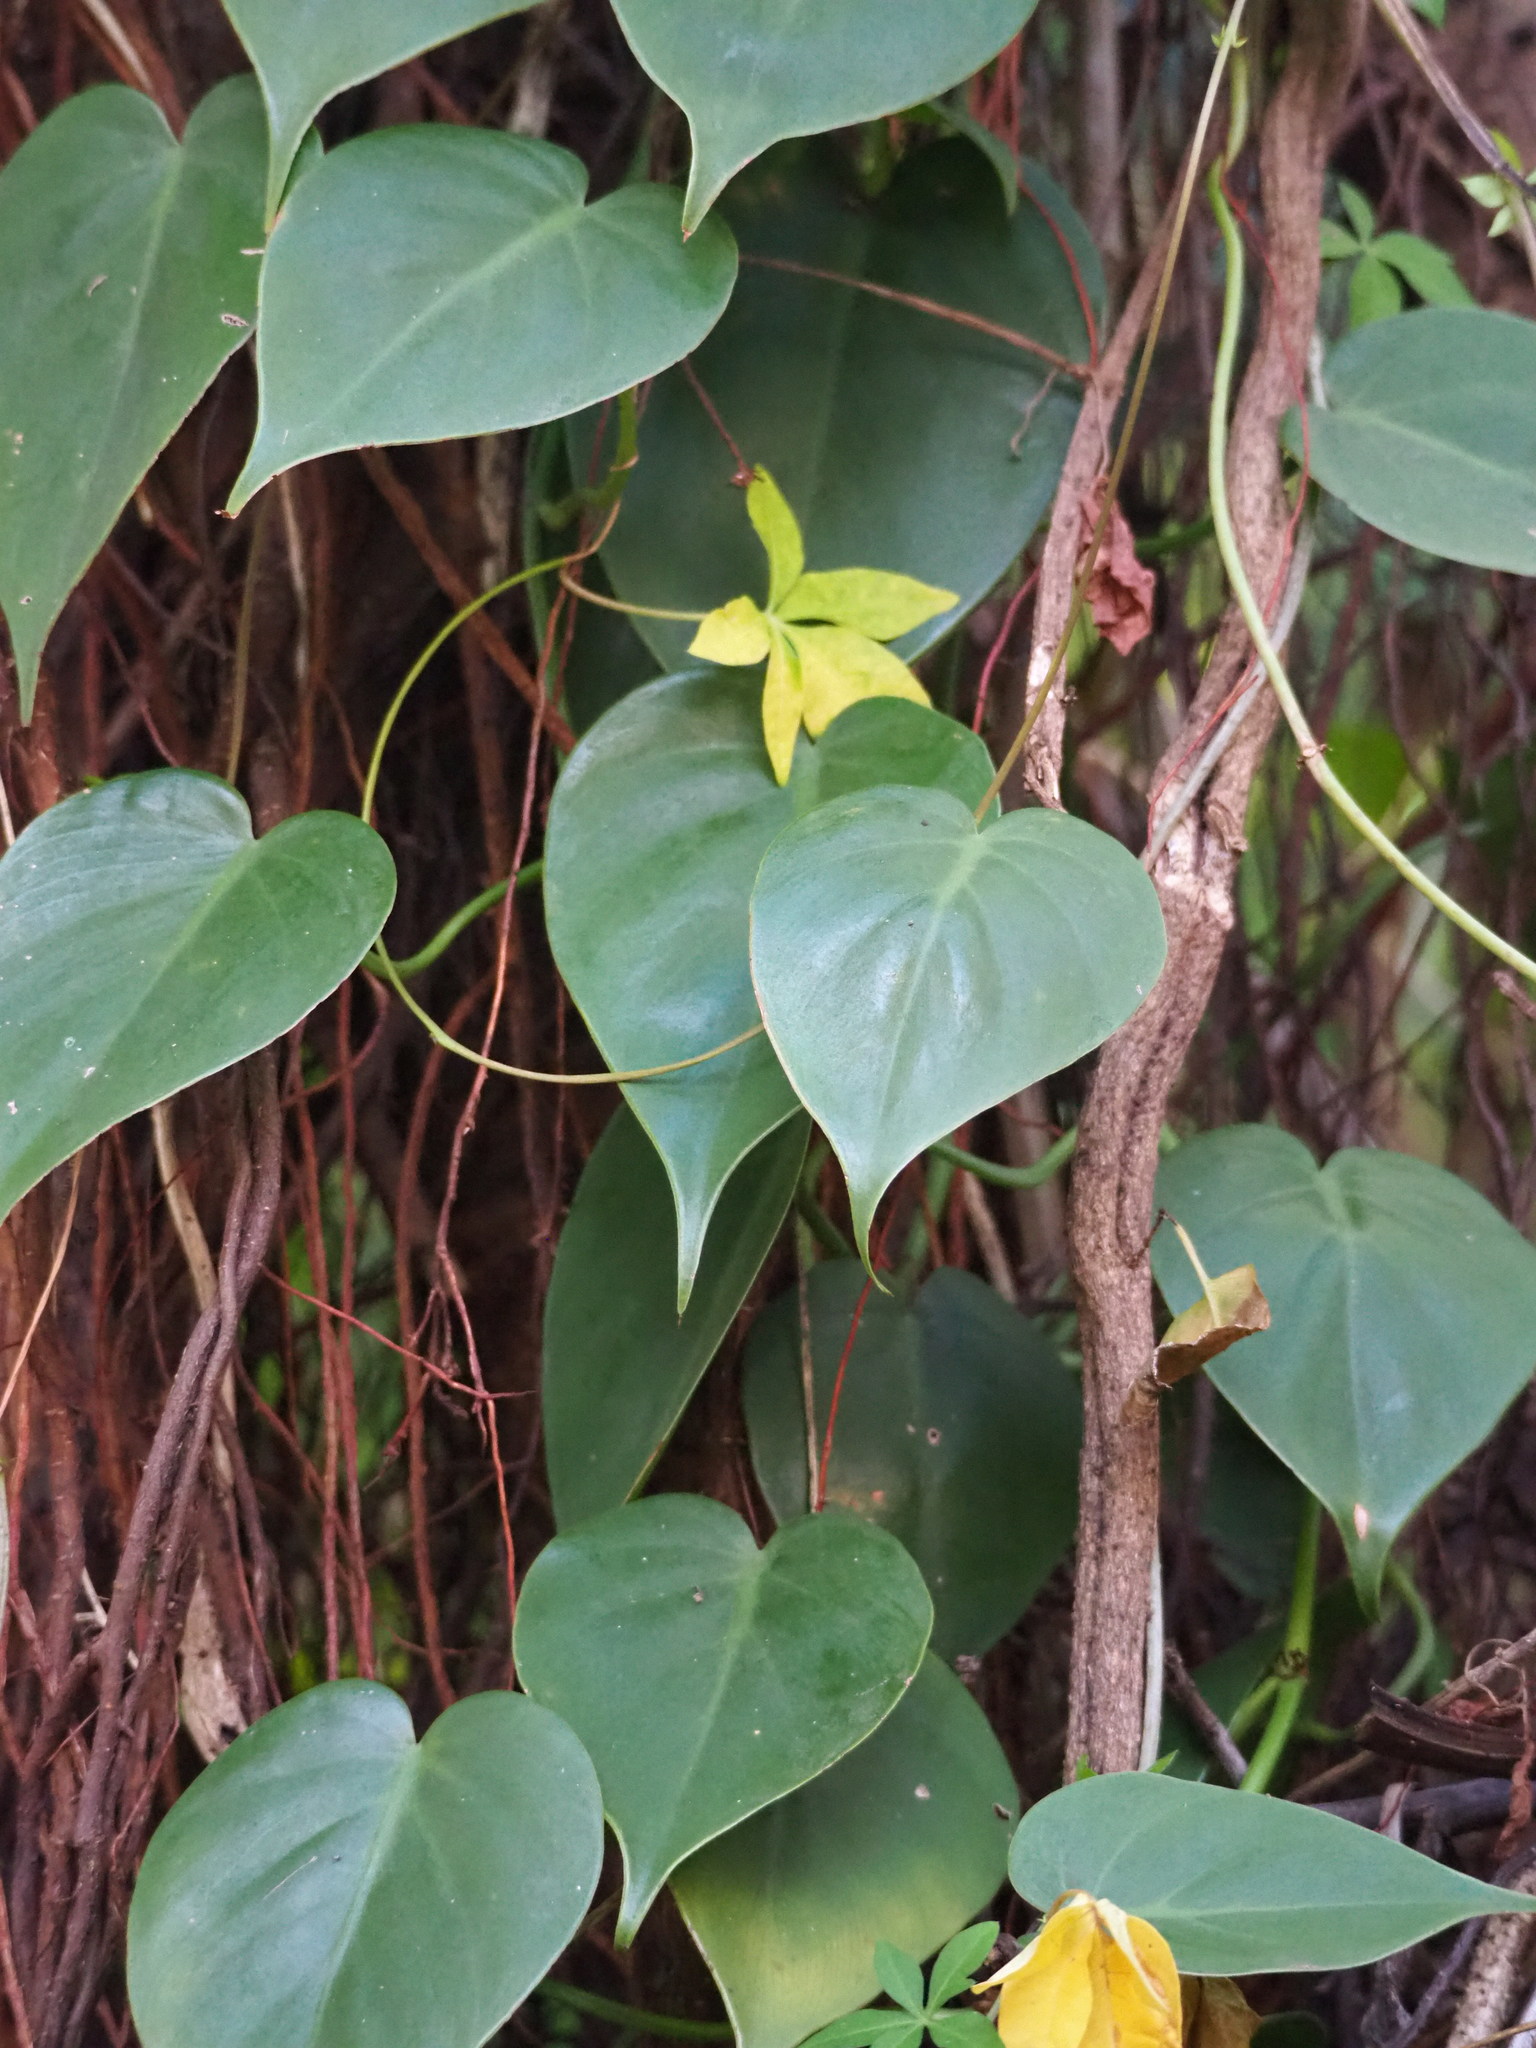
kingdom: Plantae
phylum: Tracheophyta
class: Liliopsida
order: Alismatales
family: Araceae
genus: Philodendron
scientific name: Philodendron hederaceum
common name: Vilevine
